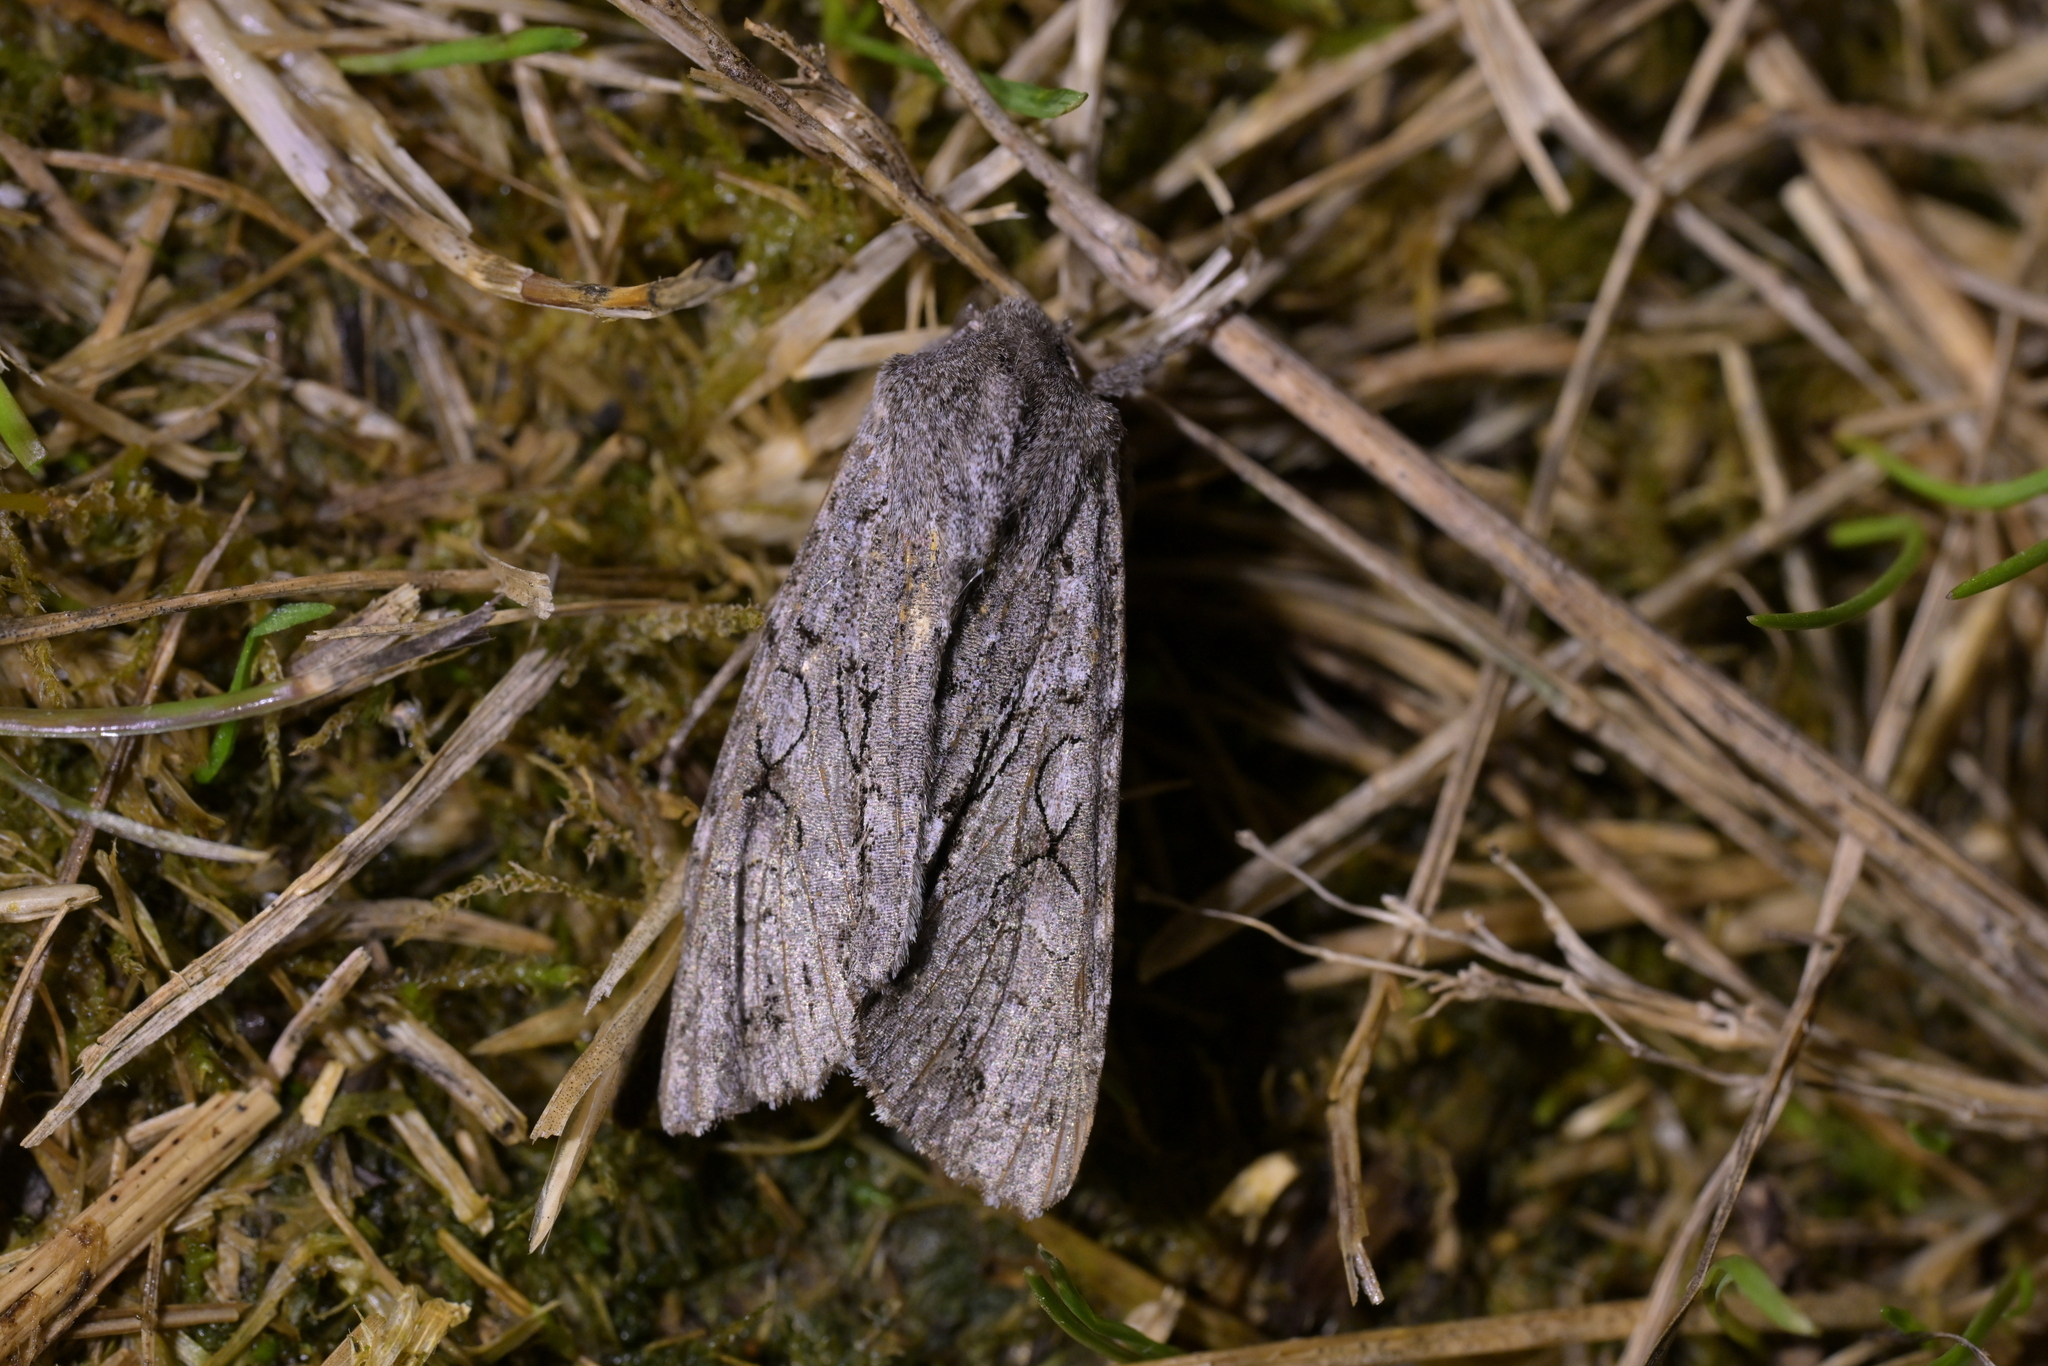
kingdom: Animalia
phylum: Arthropoda
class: Insecta
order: Lepidoptera
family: Noctuidae
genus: Ichneutica
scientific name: Ichneutica
